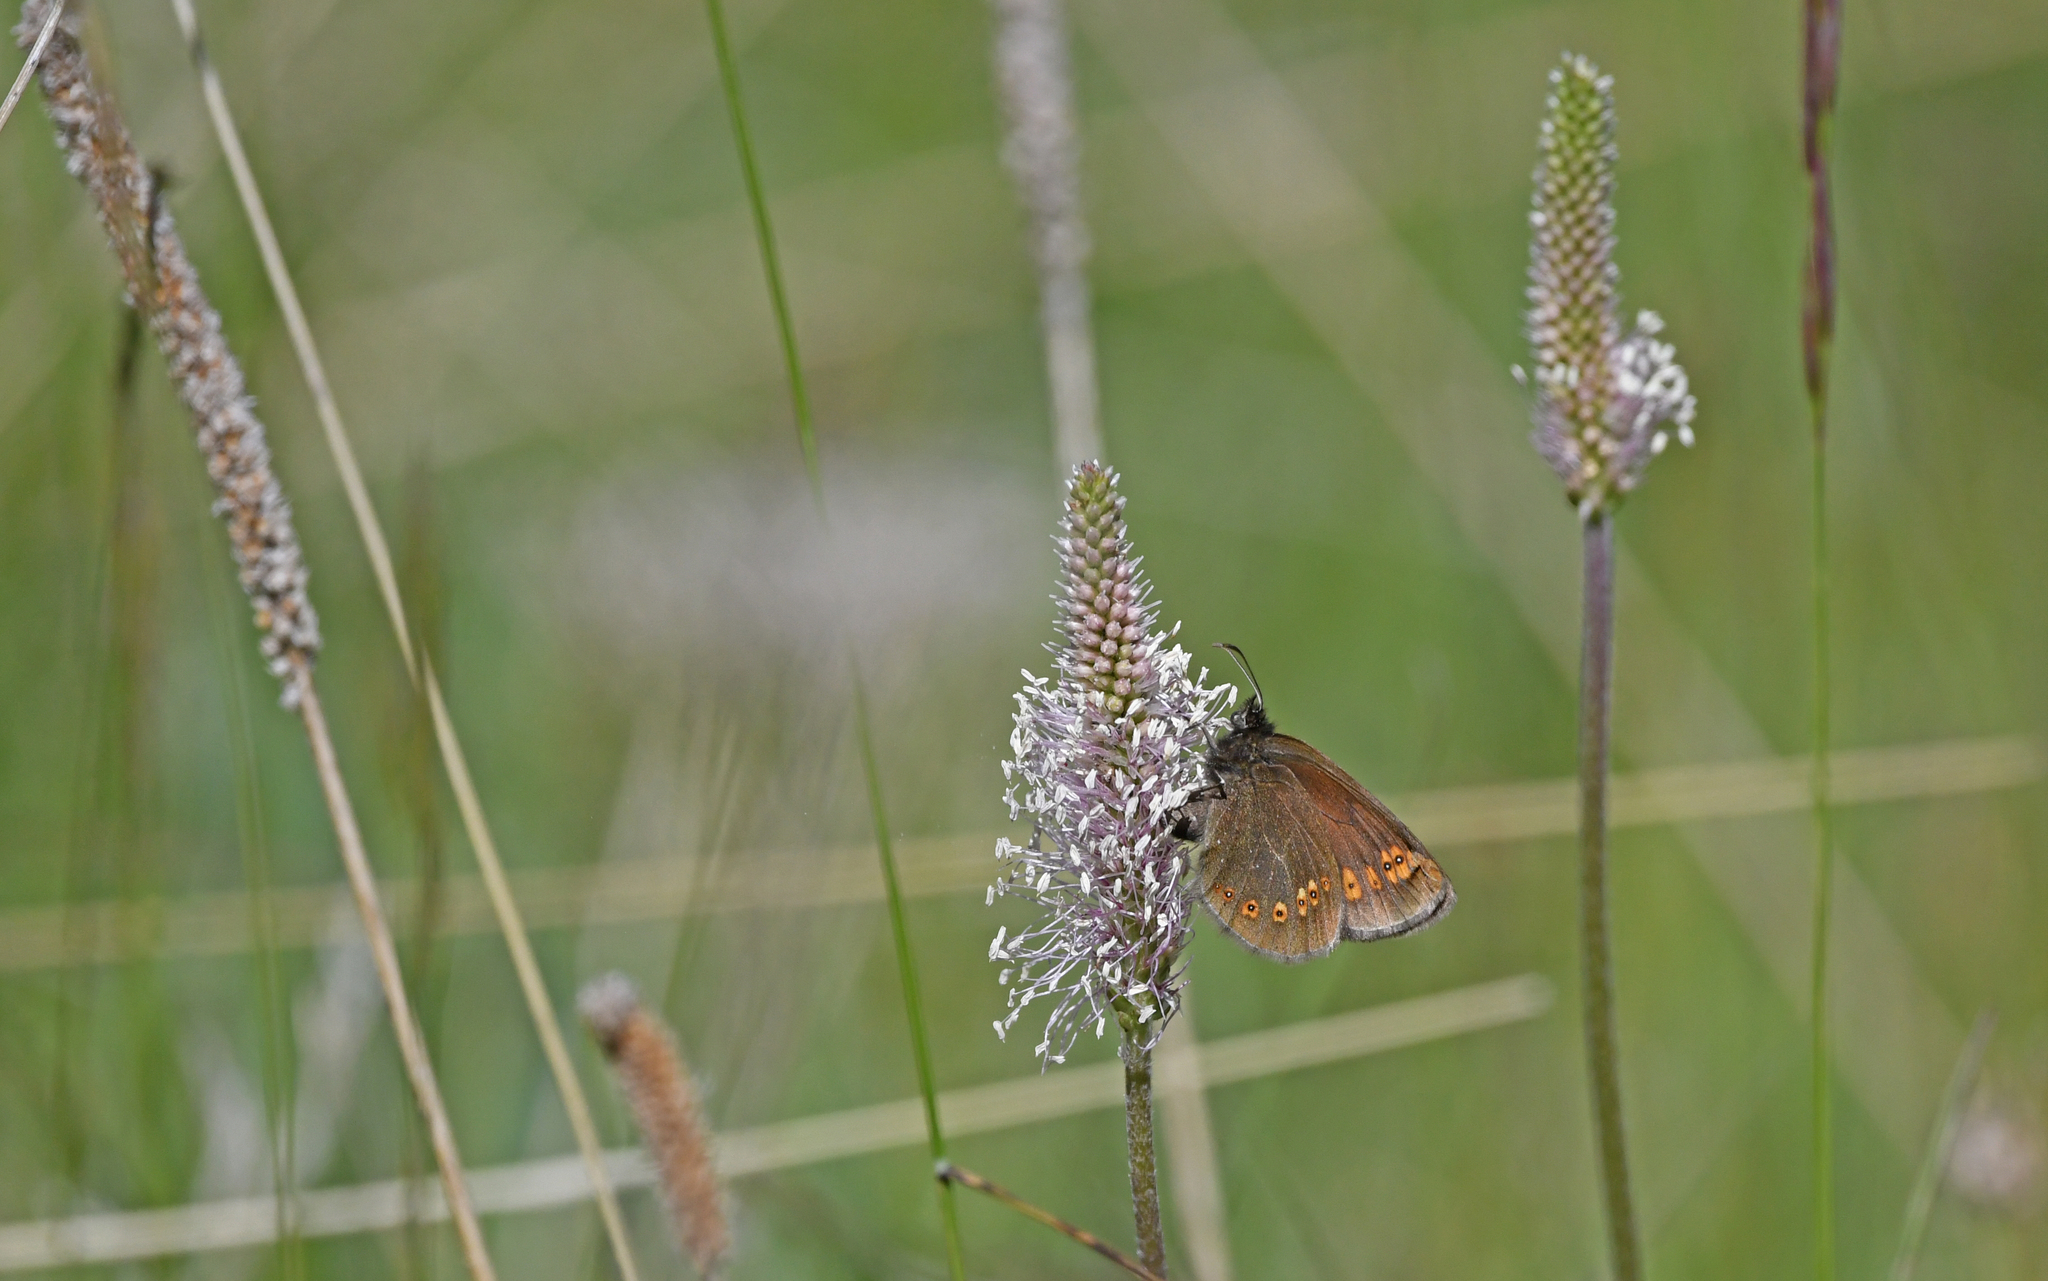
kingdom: Animalia
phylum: Arthropoda
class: Insecta
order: Lepidoptera
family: Nymphalidae
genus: Erebia
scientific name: Erebia alberganus
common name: Almond-eyed ringlet
